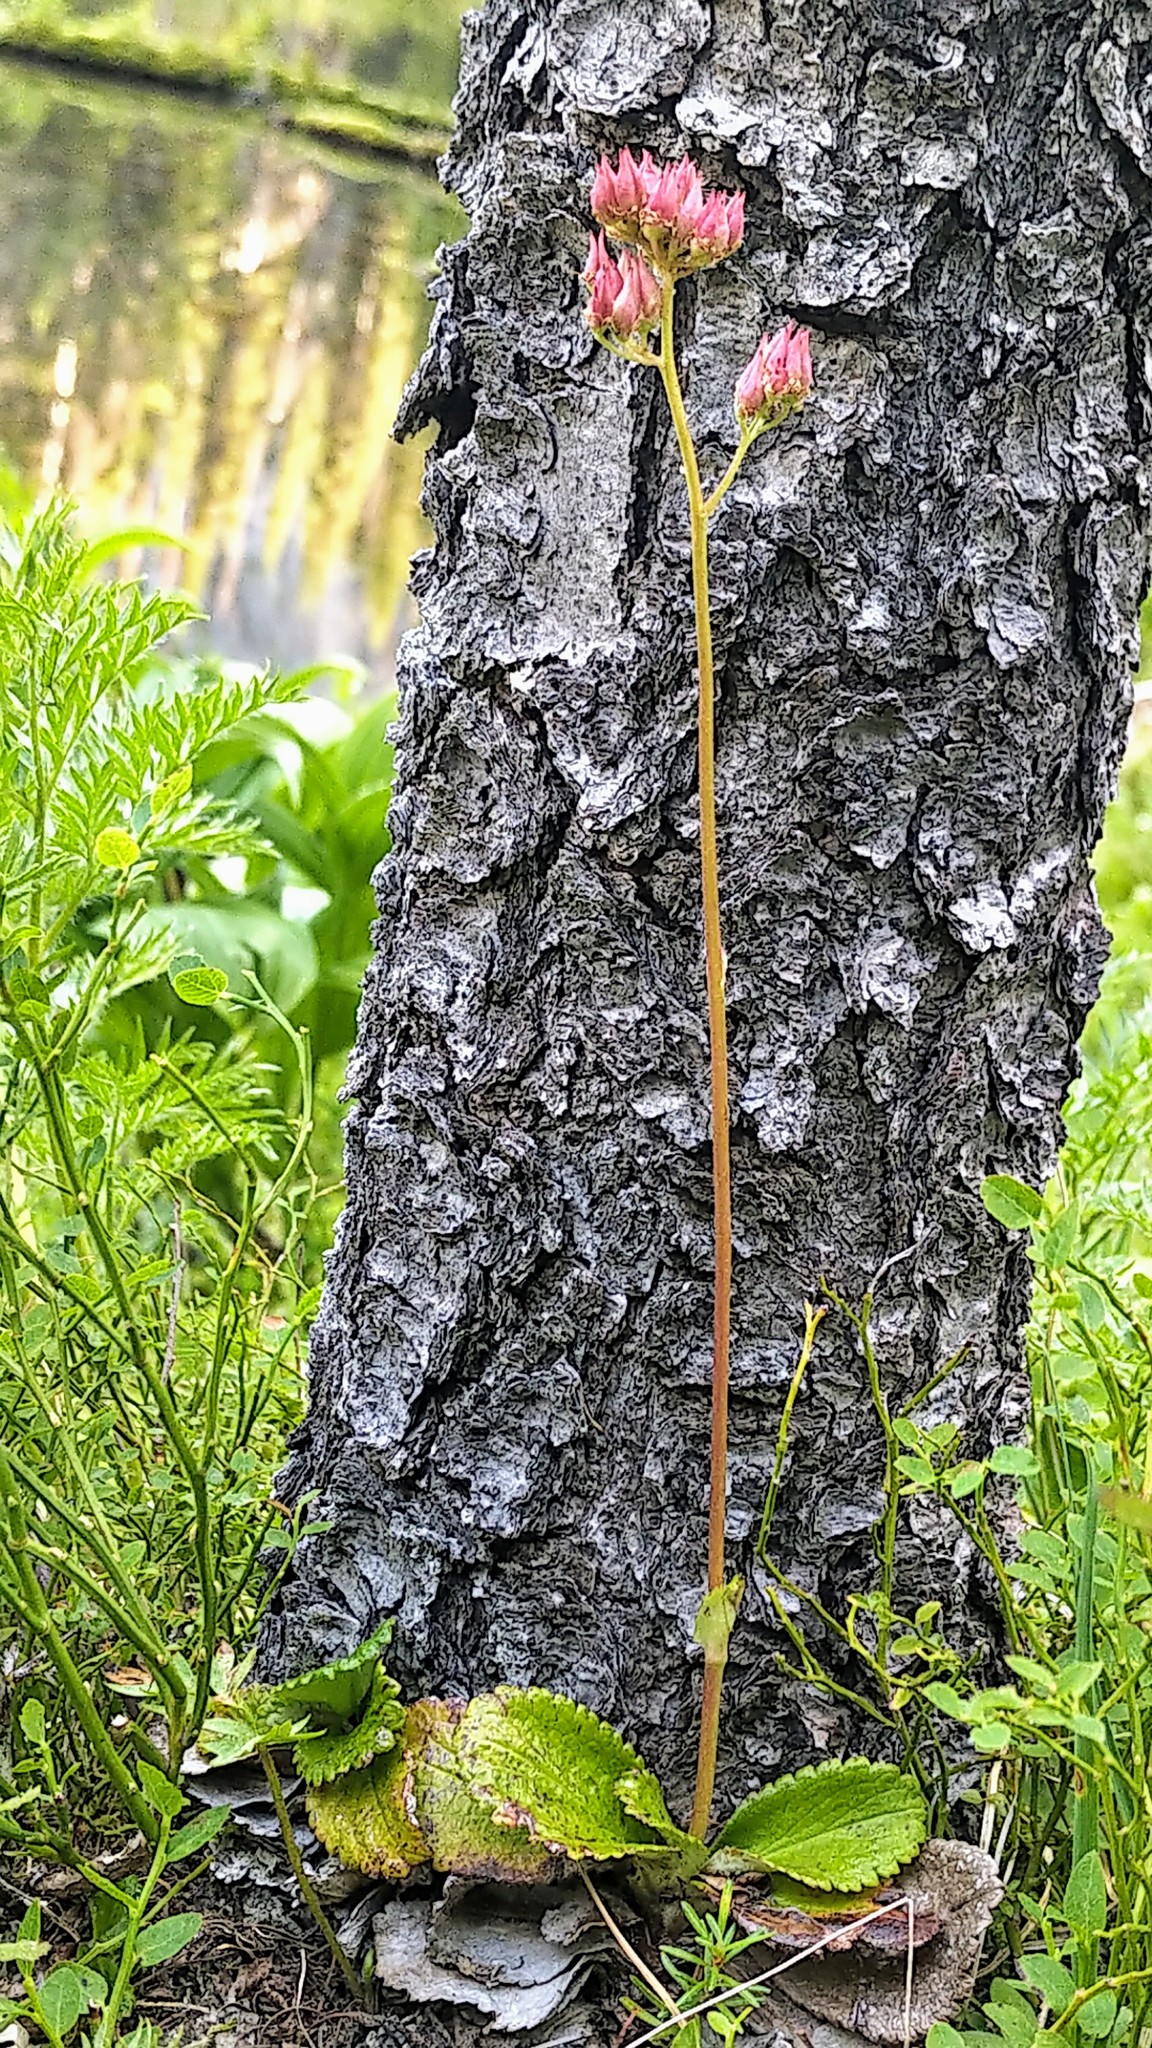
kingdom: Plantae
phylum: Tracheophyta
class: Magnoliopsida
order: Saxifragales
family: Saxifragaceae
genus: Leptarrhena
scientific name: Leptarrhena pyrolifolia
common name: Leatherleaf-saxifrage
